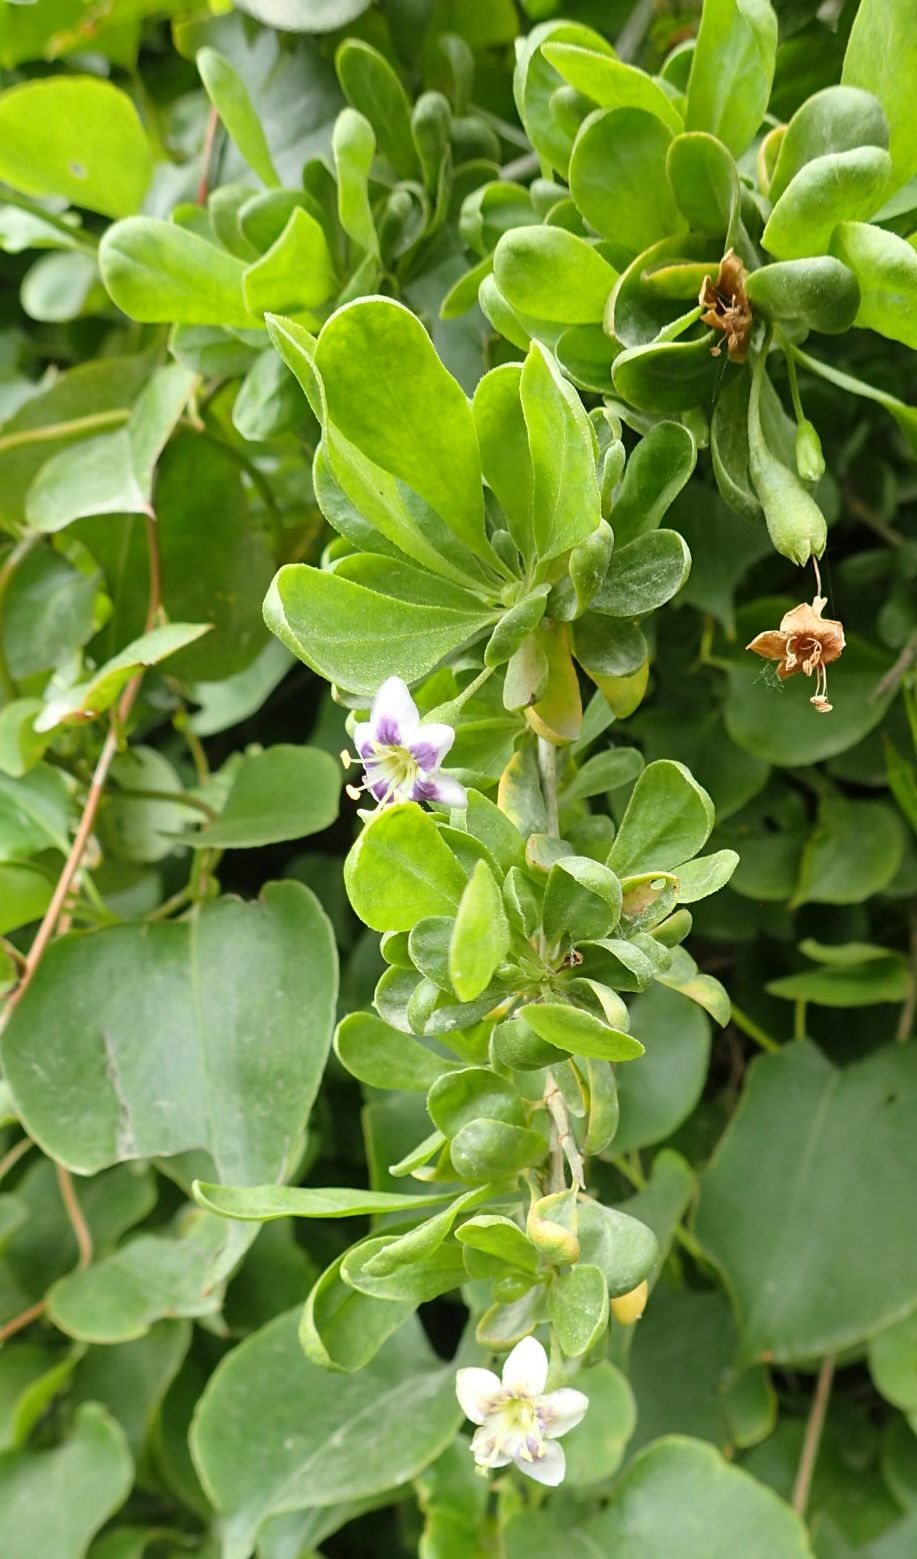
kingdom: Plantae
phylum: Tracheophyta
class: Magnoliopsida
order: Solanales
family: Solanaceae
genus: Lycium
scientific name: Lycium ferocissimum
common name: African boxthorn
